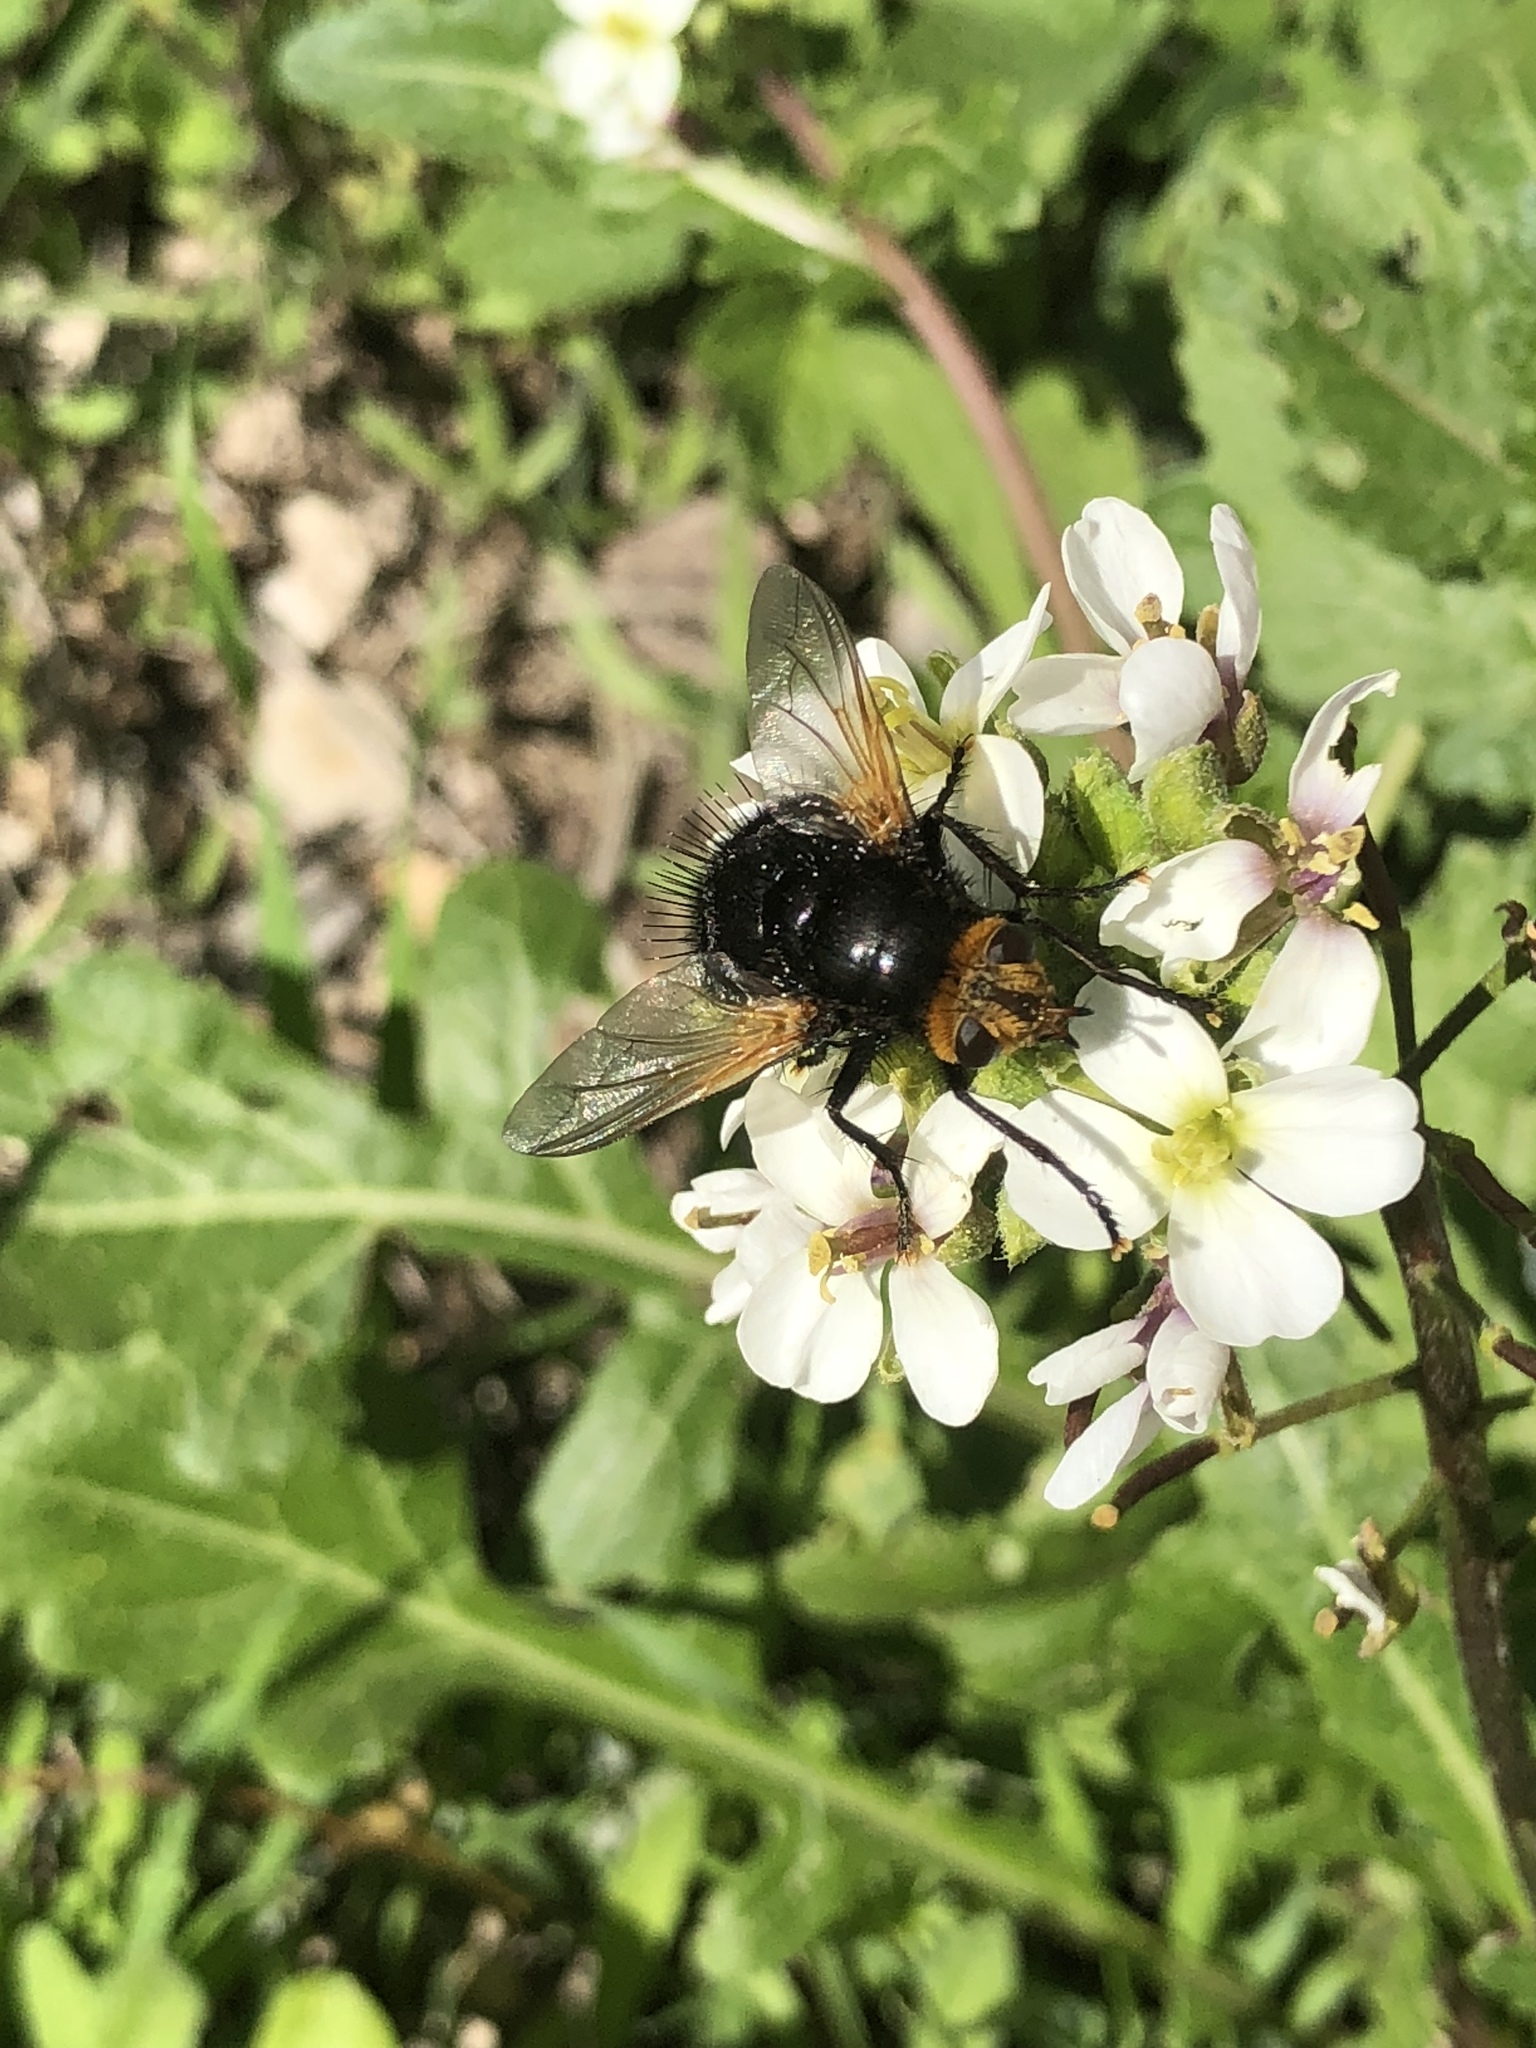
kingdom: Animalia
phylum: Arthropoda
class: Insecta
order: Diptera
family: Tachinidae
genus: Tachina
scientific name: Tachina grossa
